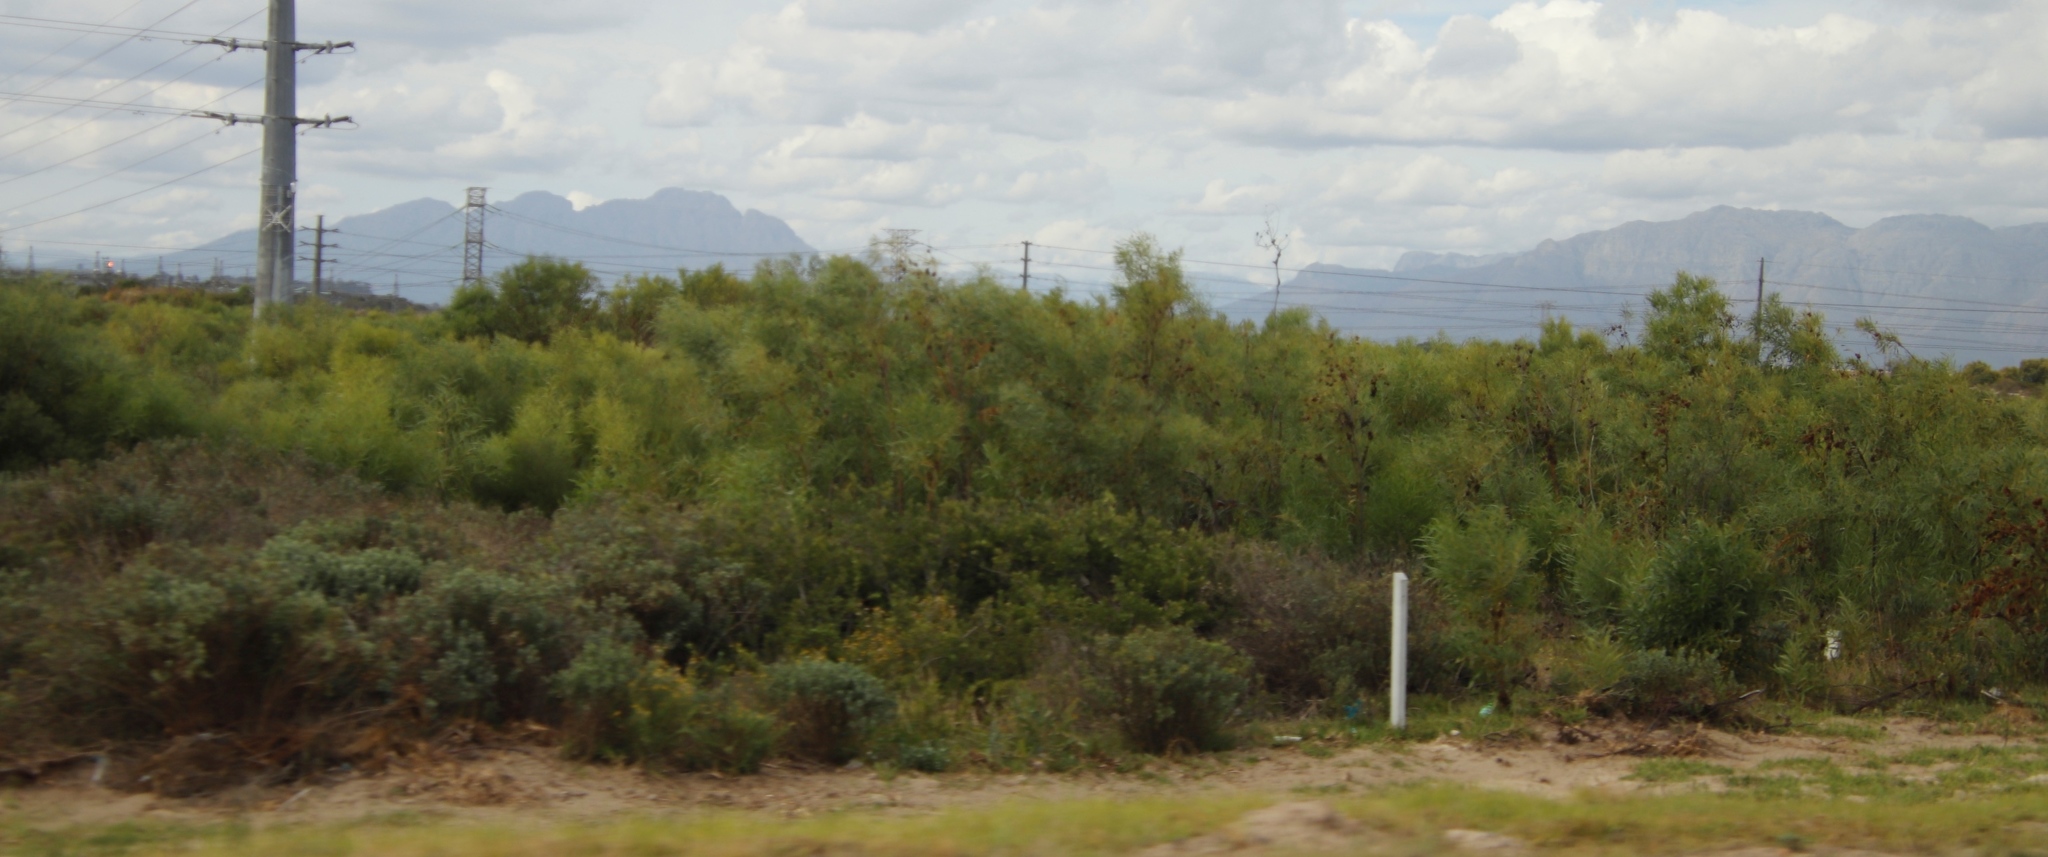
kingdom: Plantae
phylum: Tracheophyta
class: Magnoliopsida
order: Fabales
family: Fabaceae
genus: Acacia
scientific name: Acacia saligna
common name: Orange wattle
